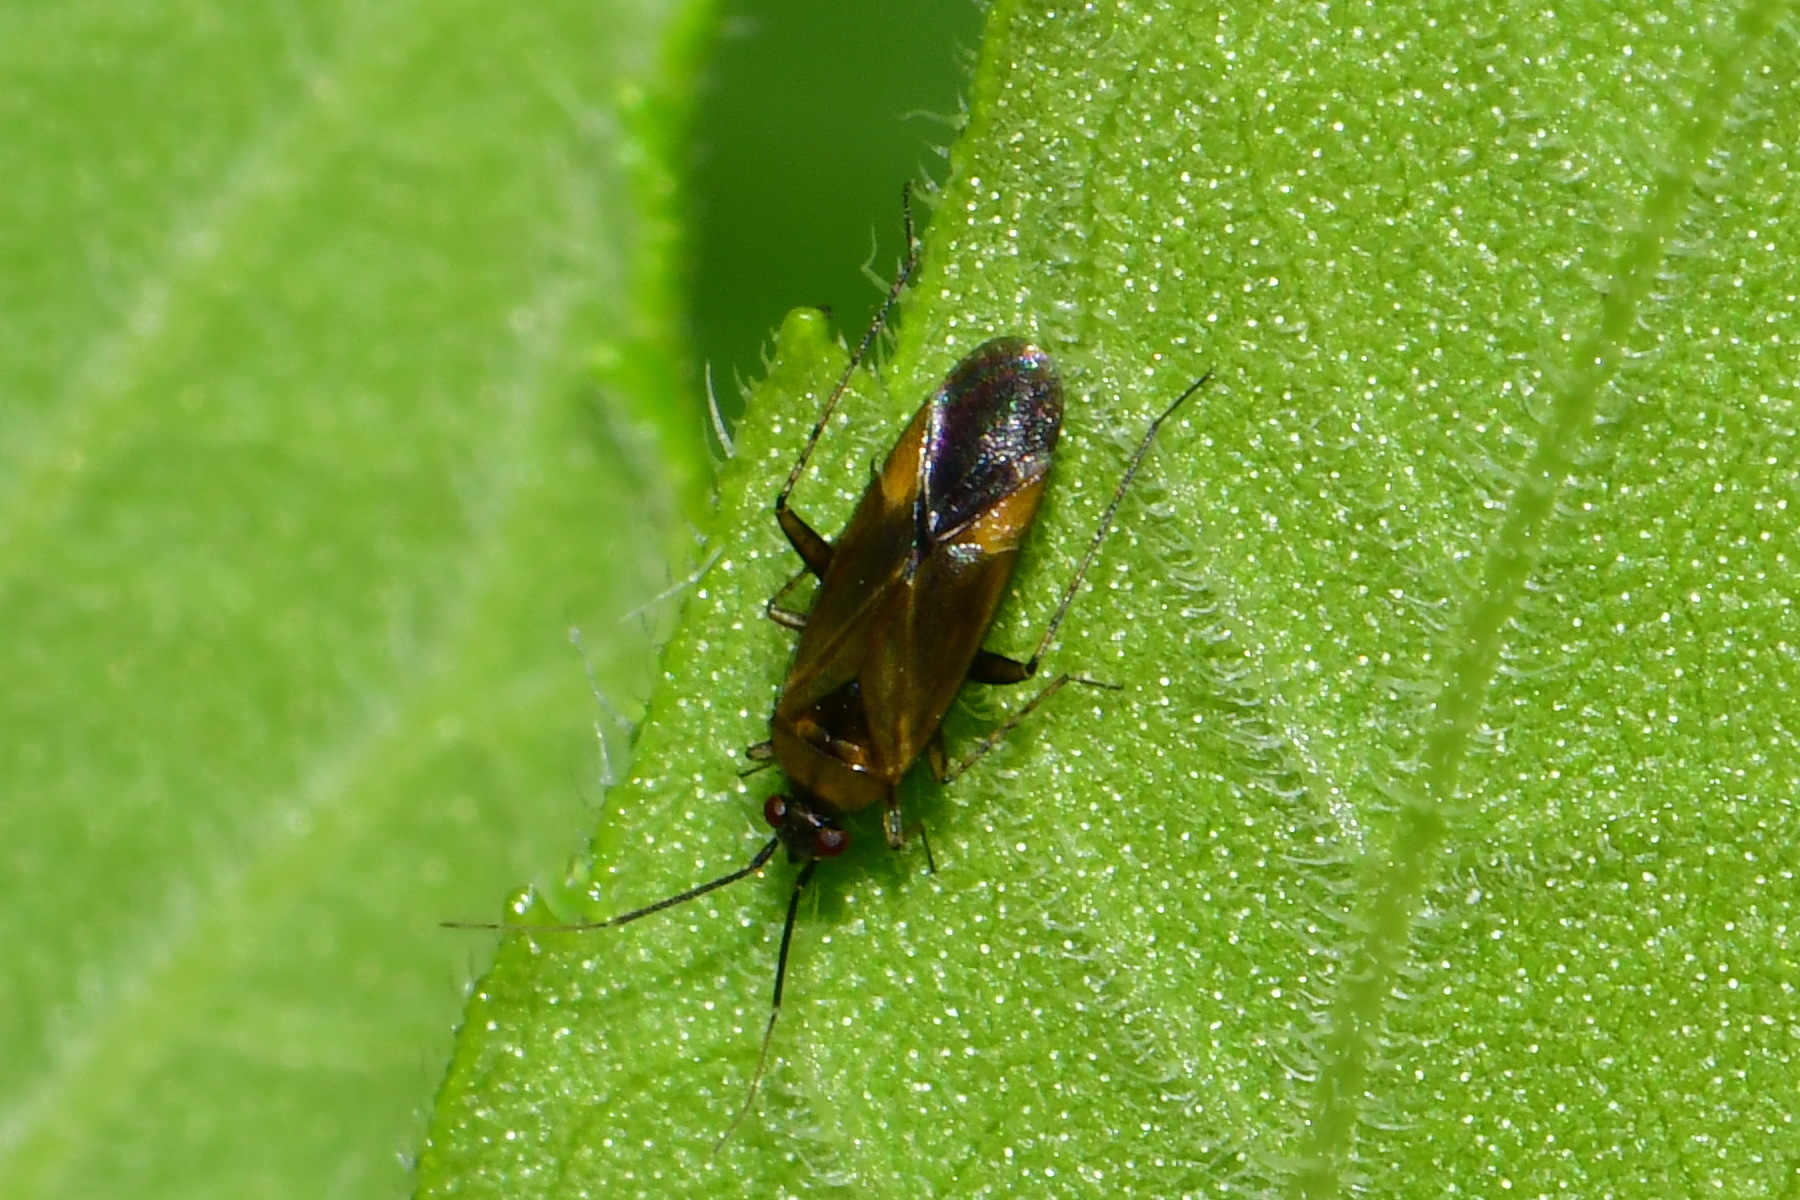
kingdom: Animalia
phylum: Arthropoda
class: Insecta
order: Hemiptera
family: Miridae
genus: Plagiognathus
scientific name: Plagiognathus arbustorum
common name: Plant bug
